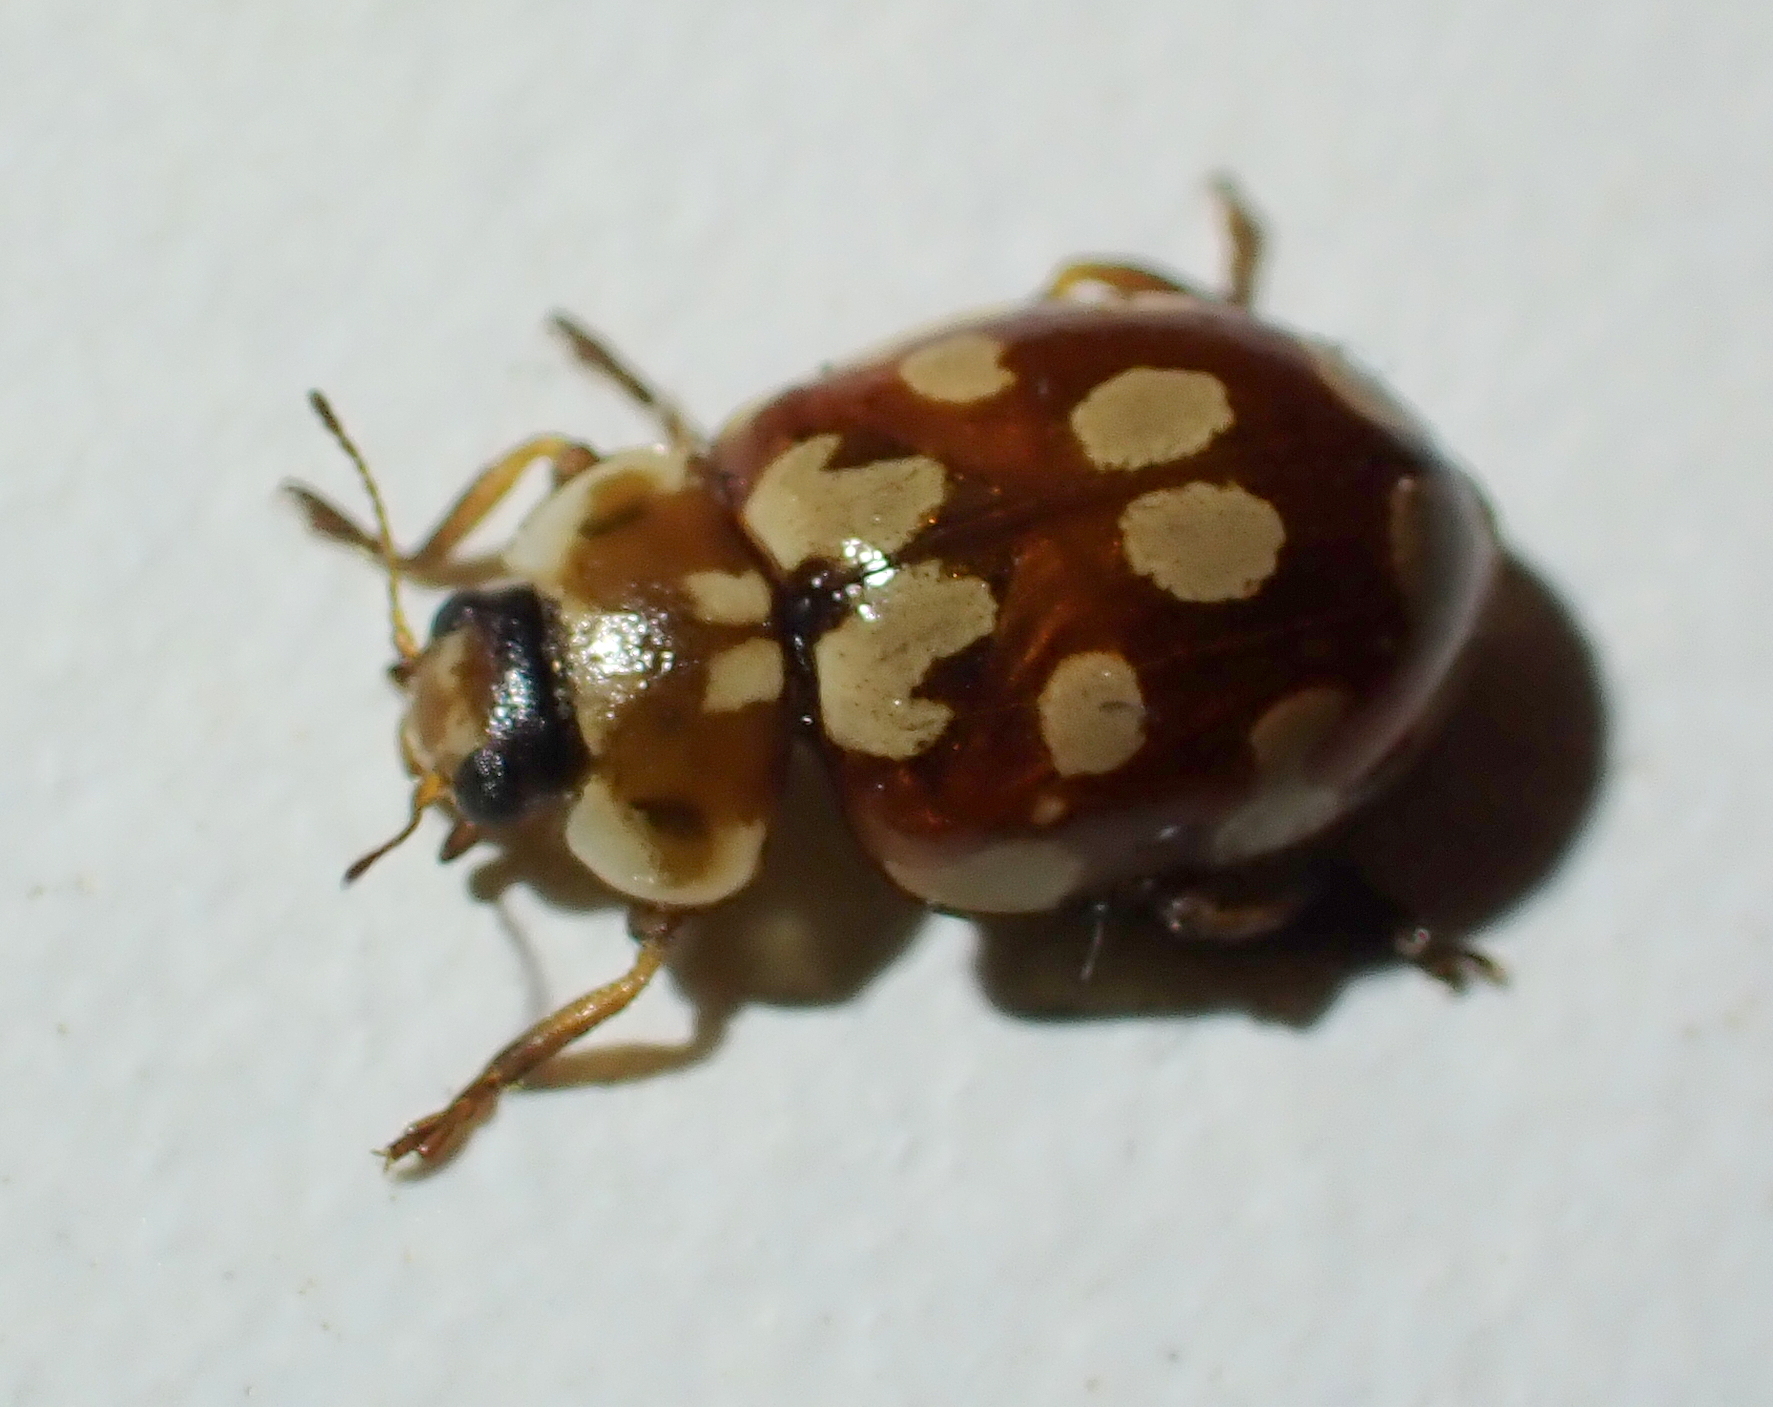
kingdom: Animalia
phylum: Arthropoda
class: Insecta
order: Coleoptera
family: Coccinellidae
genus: Myrrha
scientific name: Myrrha octodecimguttata
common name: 18-spot ladybird
